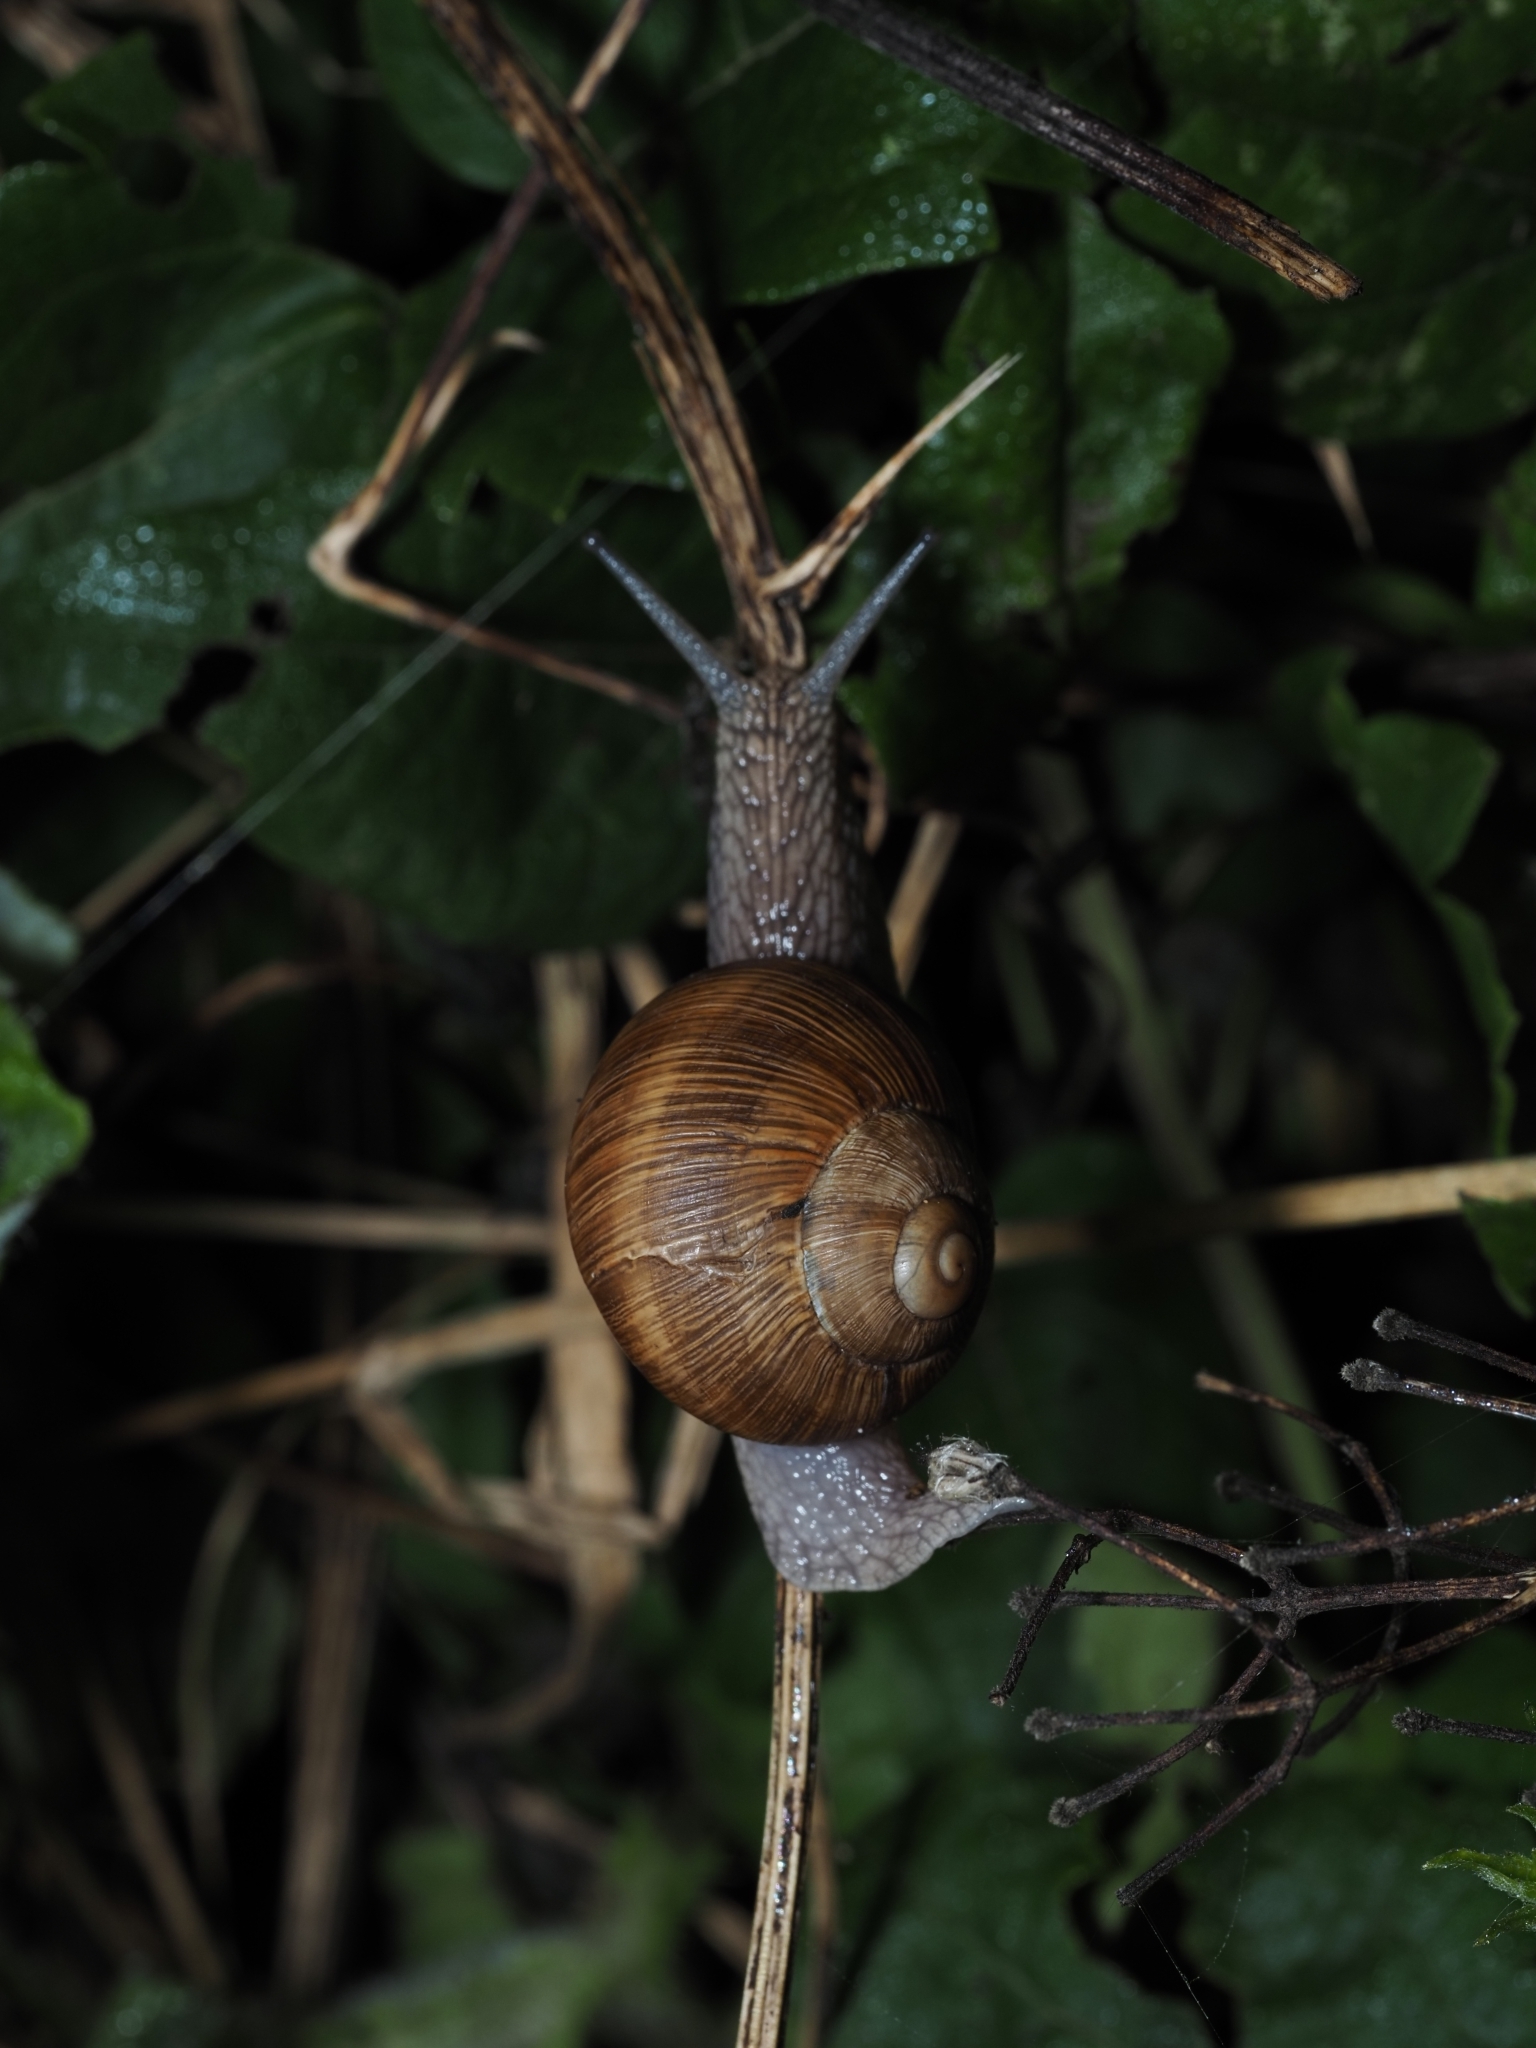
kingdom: Animalia
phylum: Mollusca
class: Gastropoda
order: Stylommatophora
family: Helicidae
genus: Helix
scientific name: Helix pomatia
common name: Roman snail
